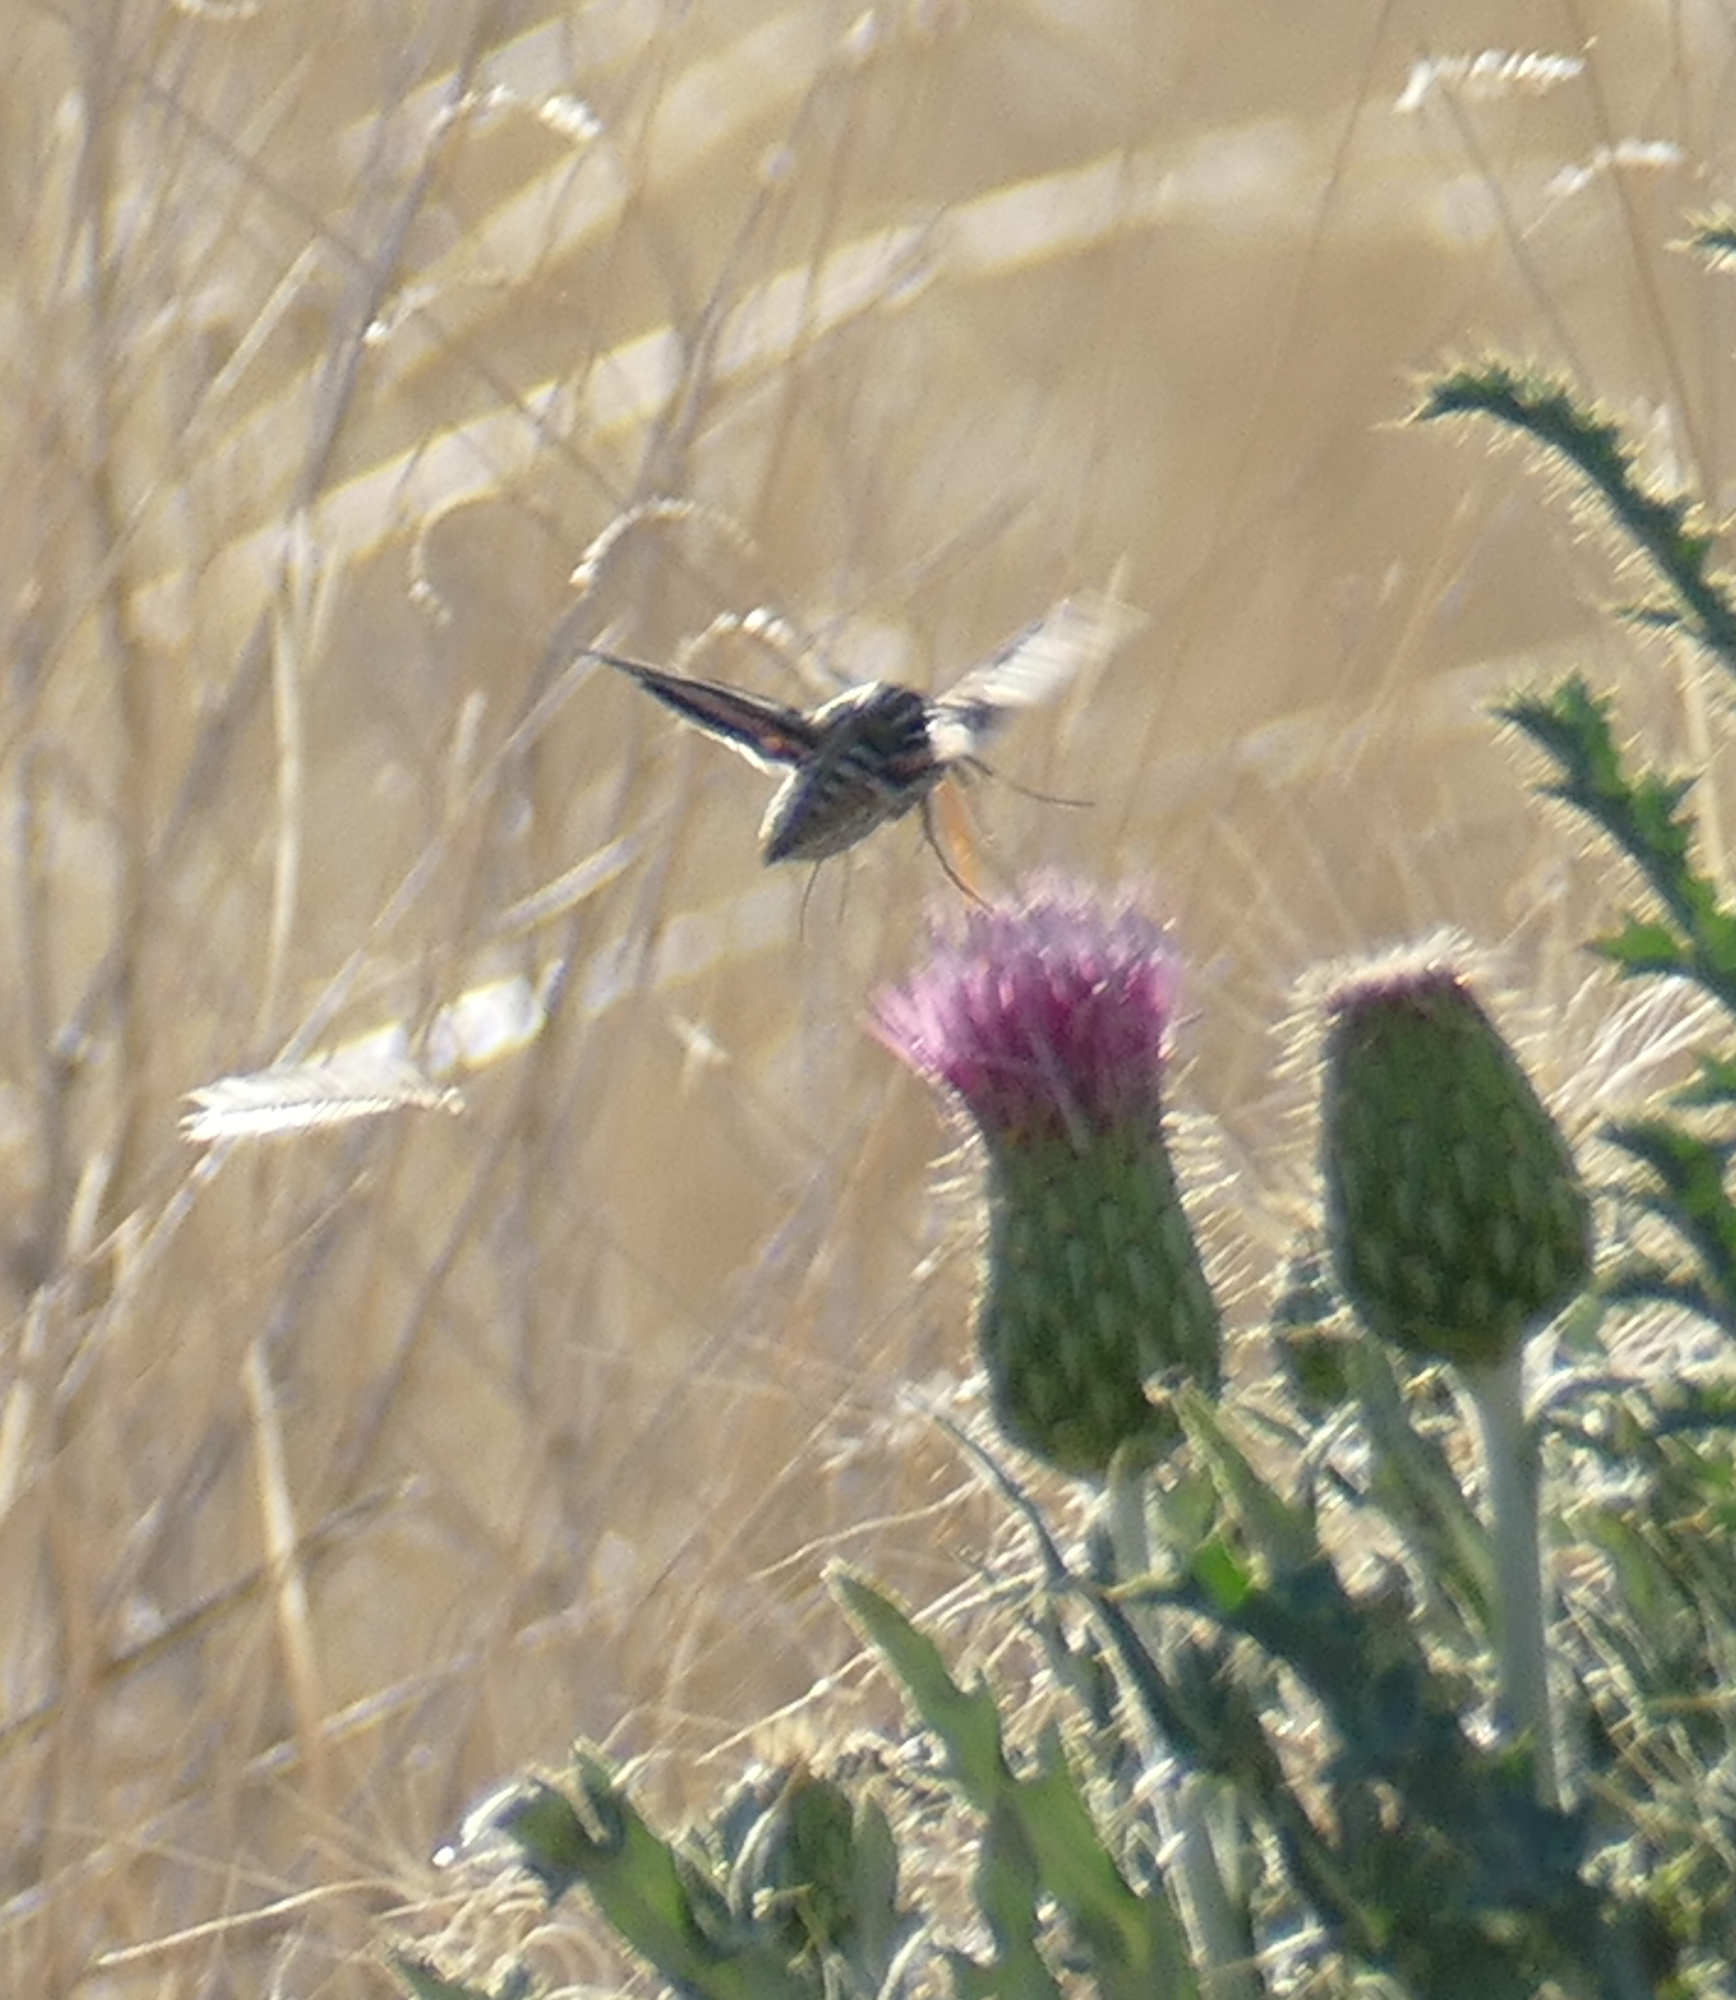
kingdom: Animalia
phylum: Arthropoda
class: Insecta
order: Lepidoptera
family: Sphingidae
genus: Hyles
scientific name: Hyles lineata
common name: White-lined sphinx
